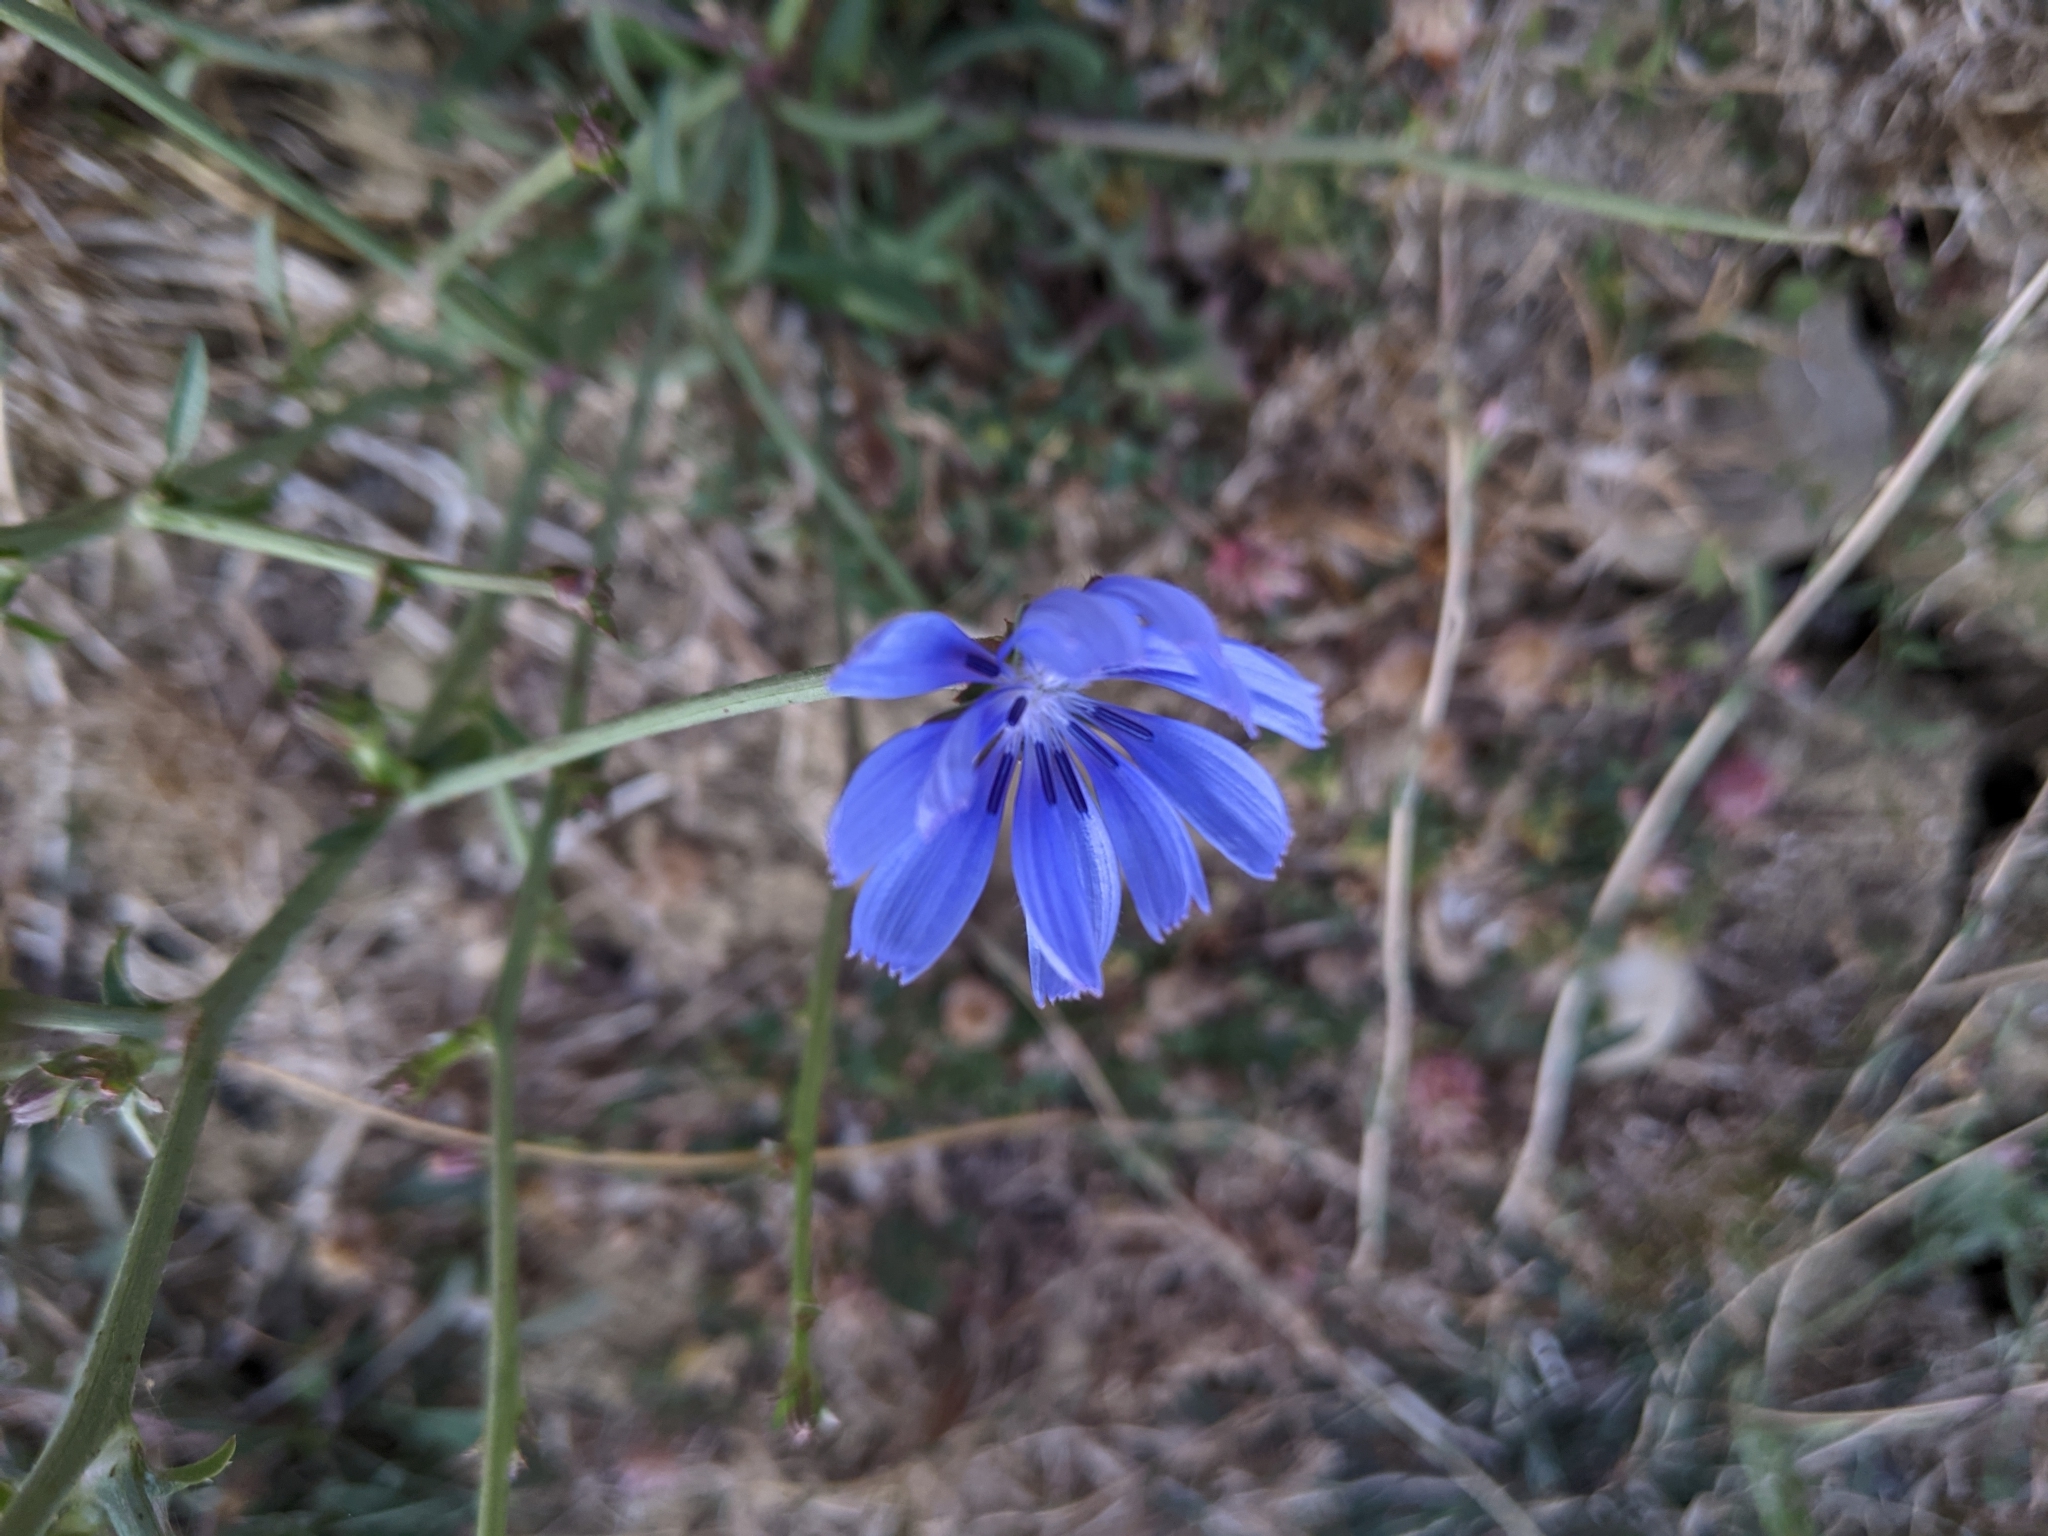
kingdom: Plantae
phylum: Tracheophyta
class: Magnoliopsida
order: Asterales
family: Asteraceae
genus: Cichorium
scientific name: Cichorium intybus
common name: Chicory
